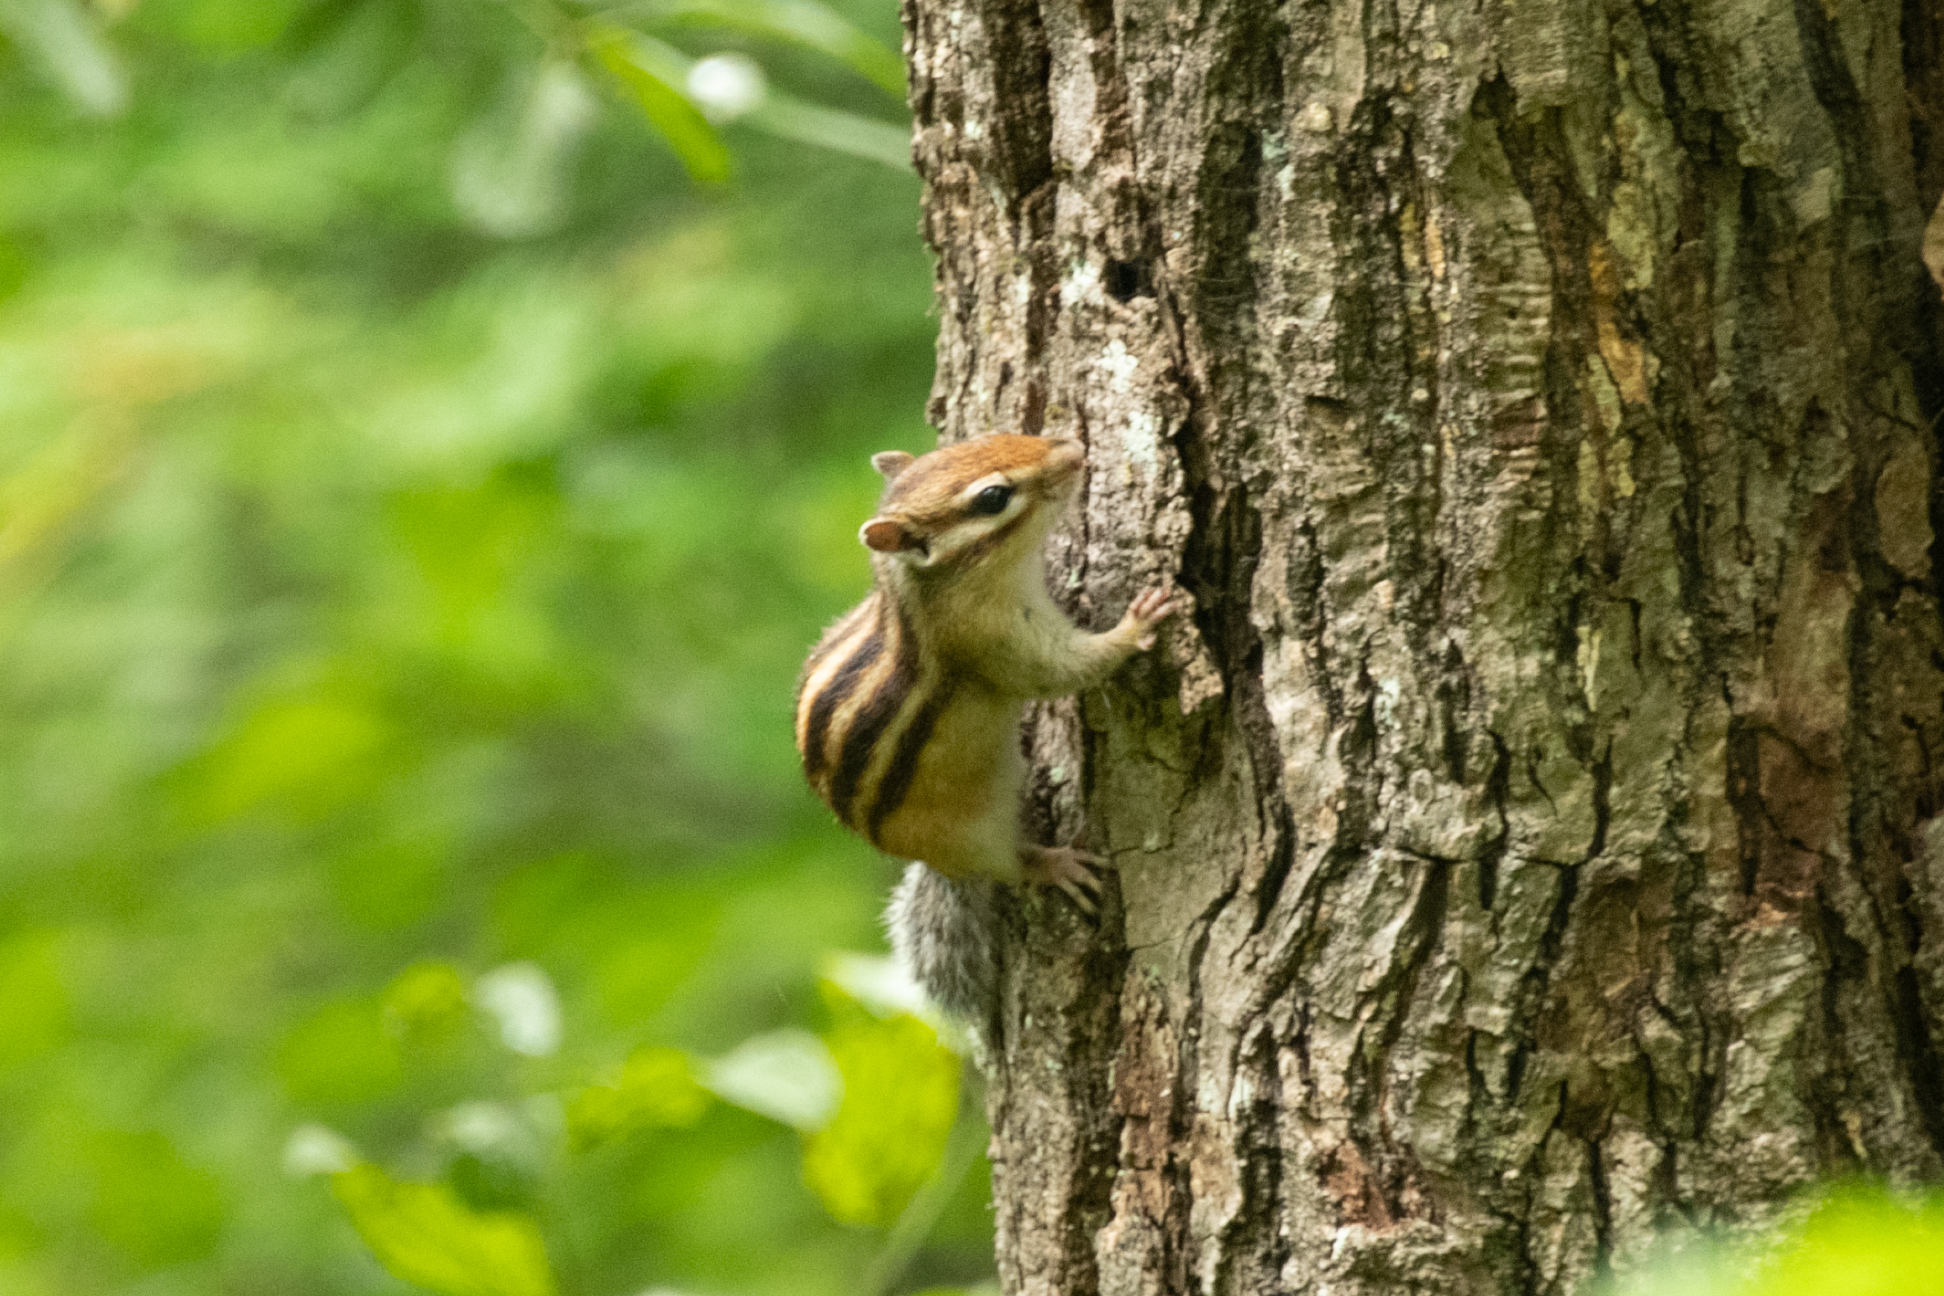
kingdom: Animalia
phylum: Chordata
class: Mammalia
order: Rodentia
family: Sciuridae
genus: Tamias
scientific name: Tamias sibiricus
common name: Siberian chipmunk
